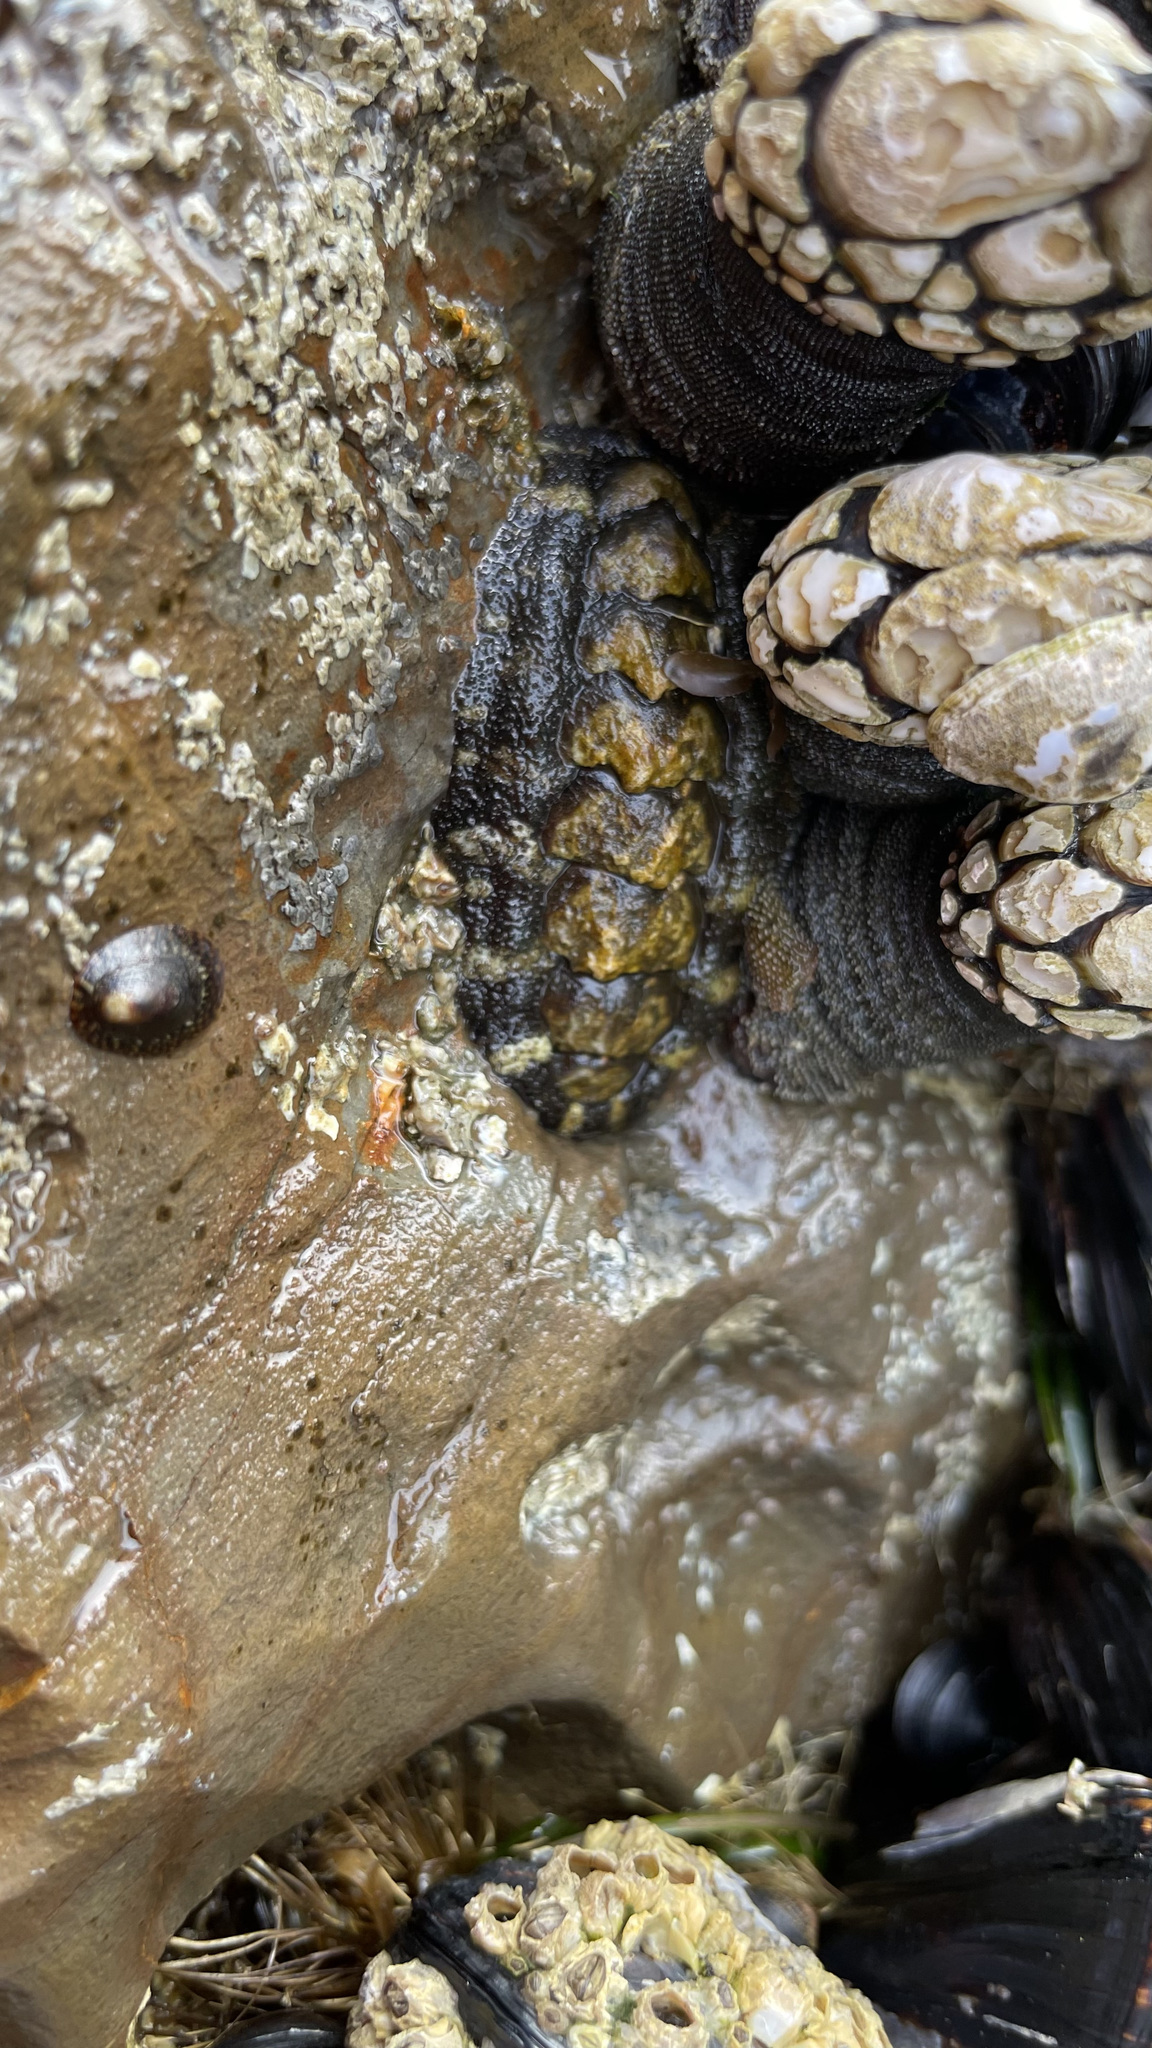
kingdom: Animalia
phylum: Mollusca
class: Polyplacophora
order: Chitonida
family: Tonicellidae
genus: Nuttallina
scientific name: Nuttallina californica
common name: California nuttall chiton
